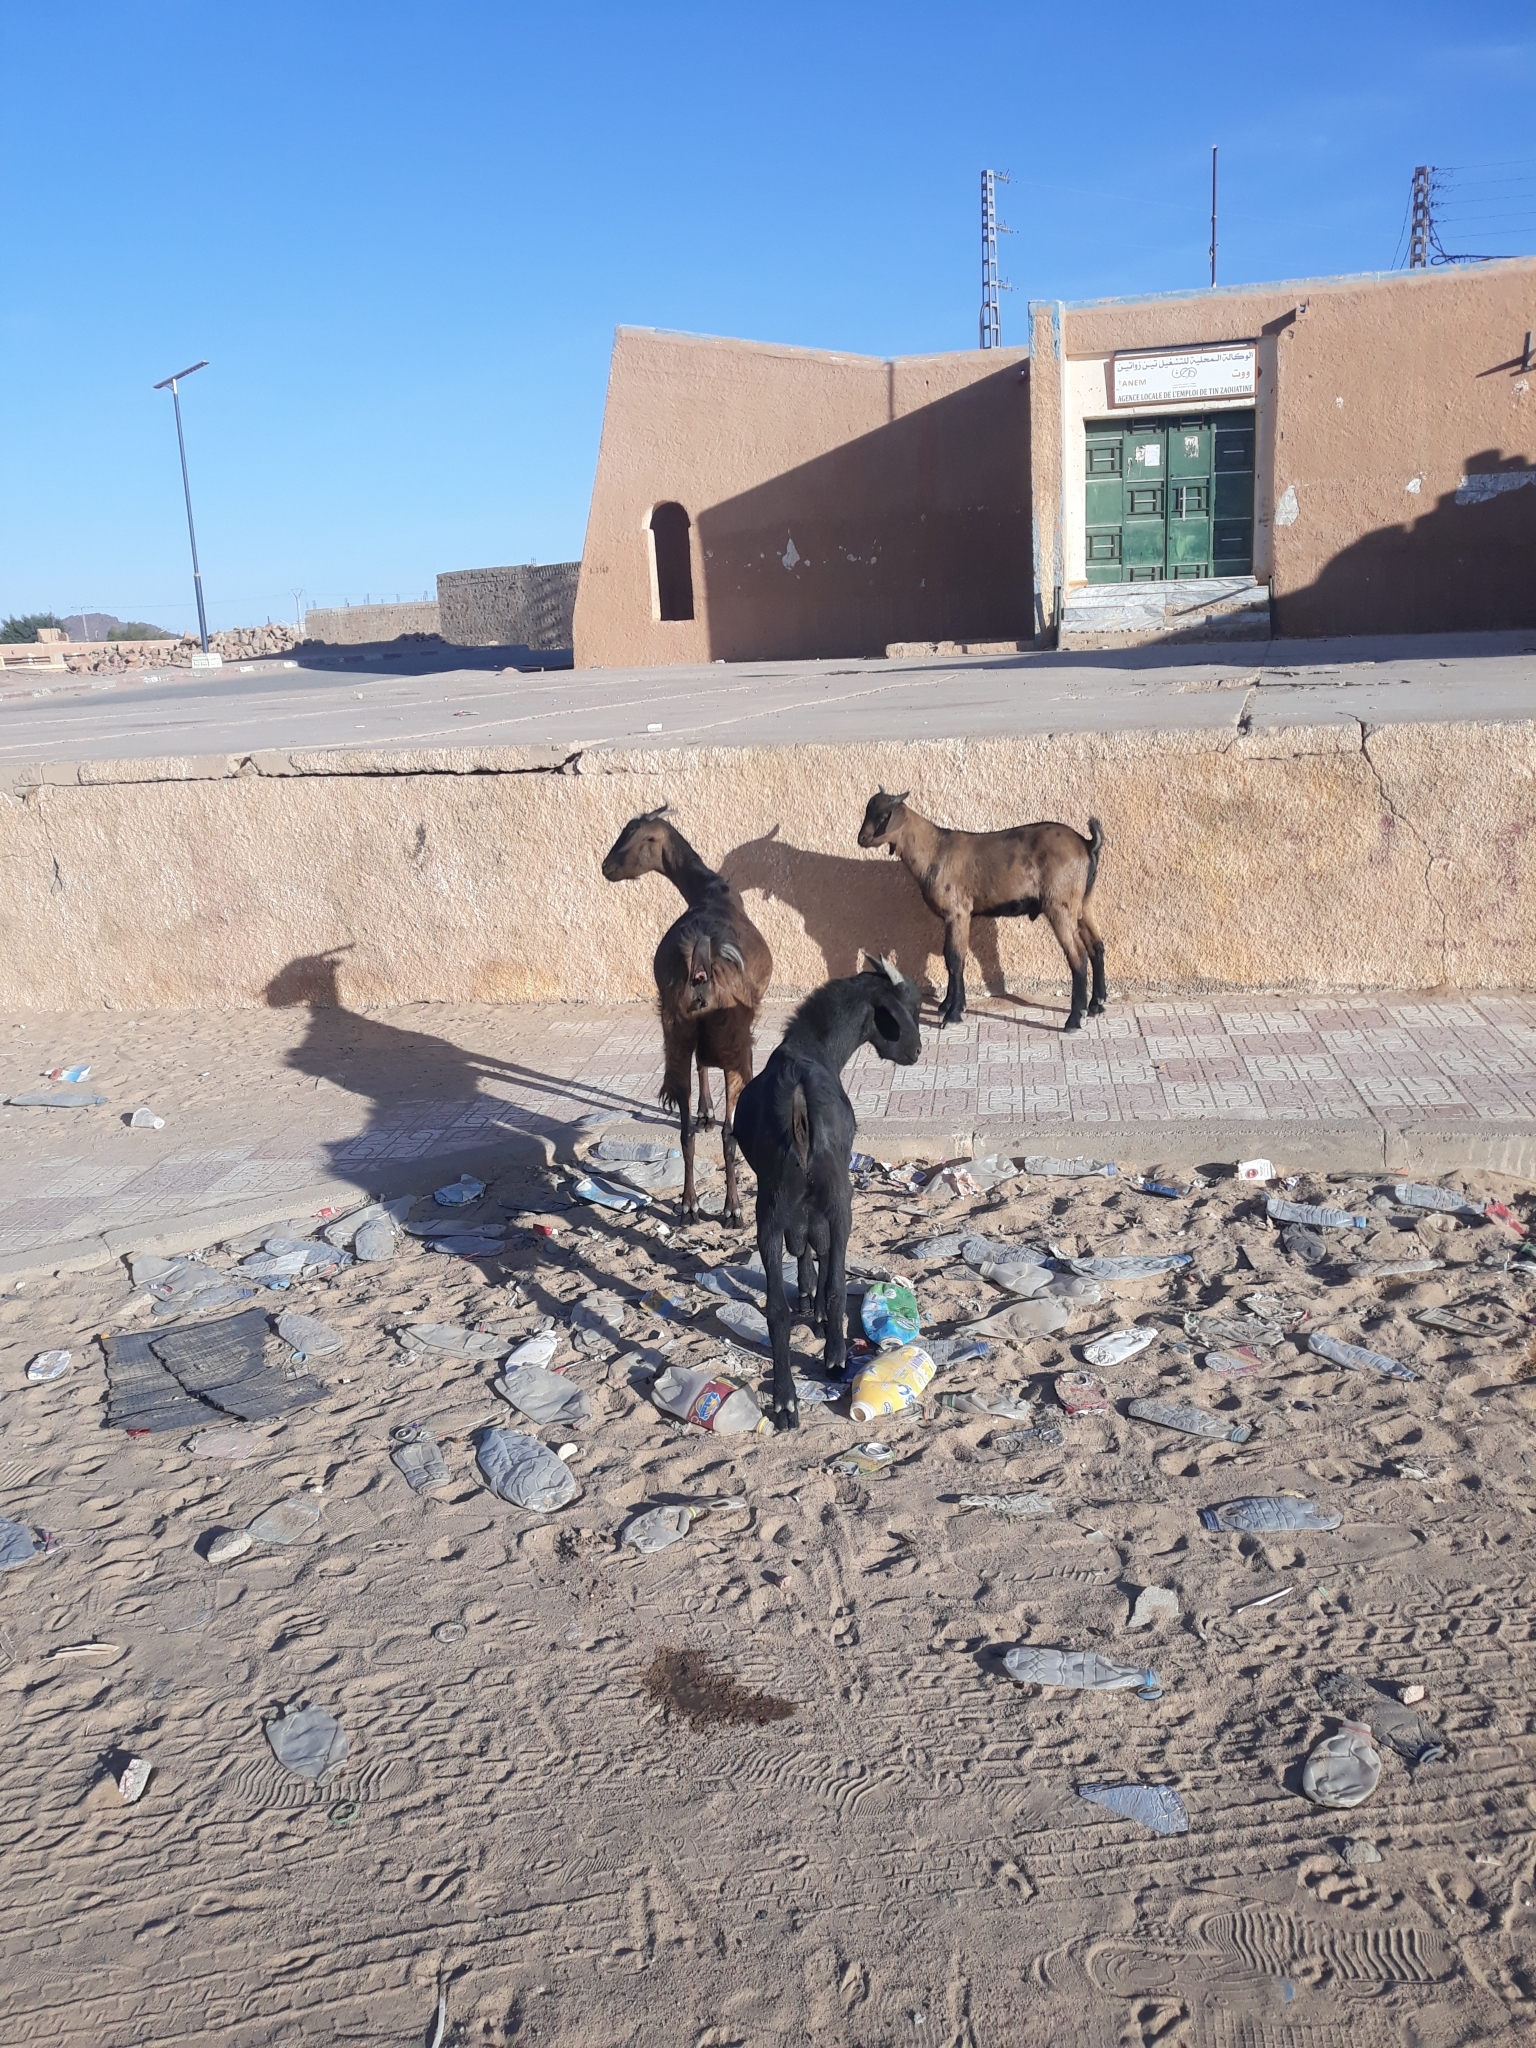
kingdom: Animalia
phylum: Chordata
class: Mammalia
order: Artiodactyla
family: Bovidae
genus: Capra
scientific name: Capra hircus
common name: Domestic goat
